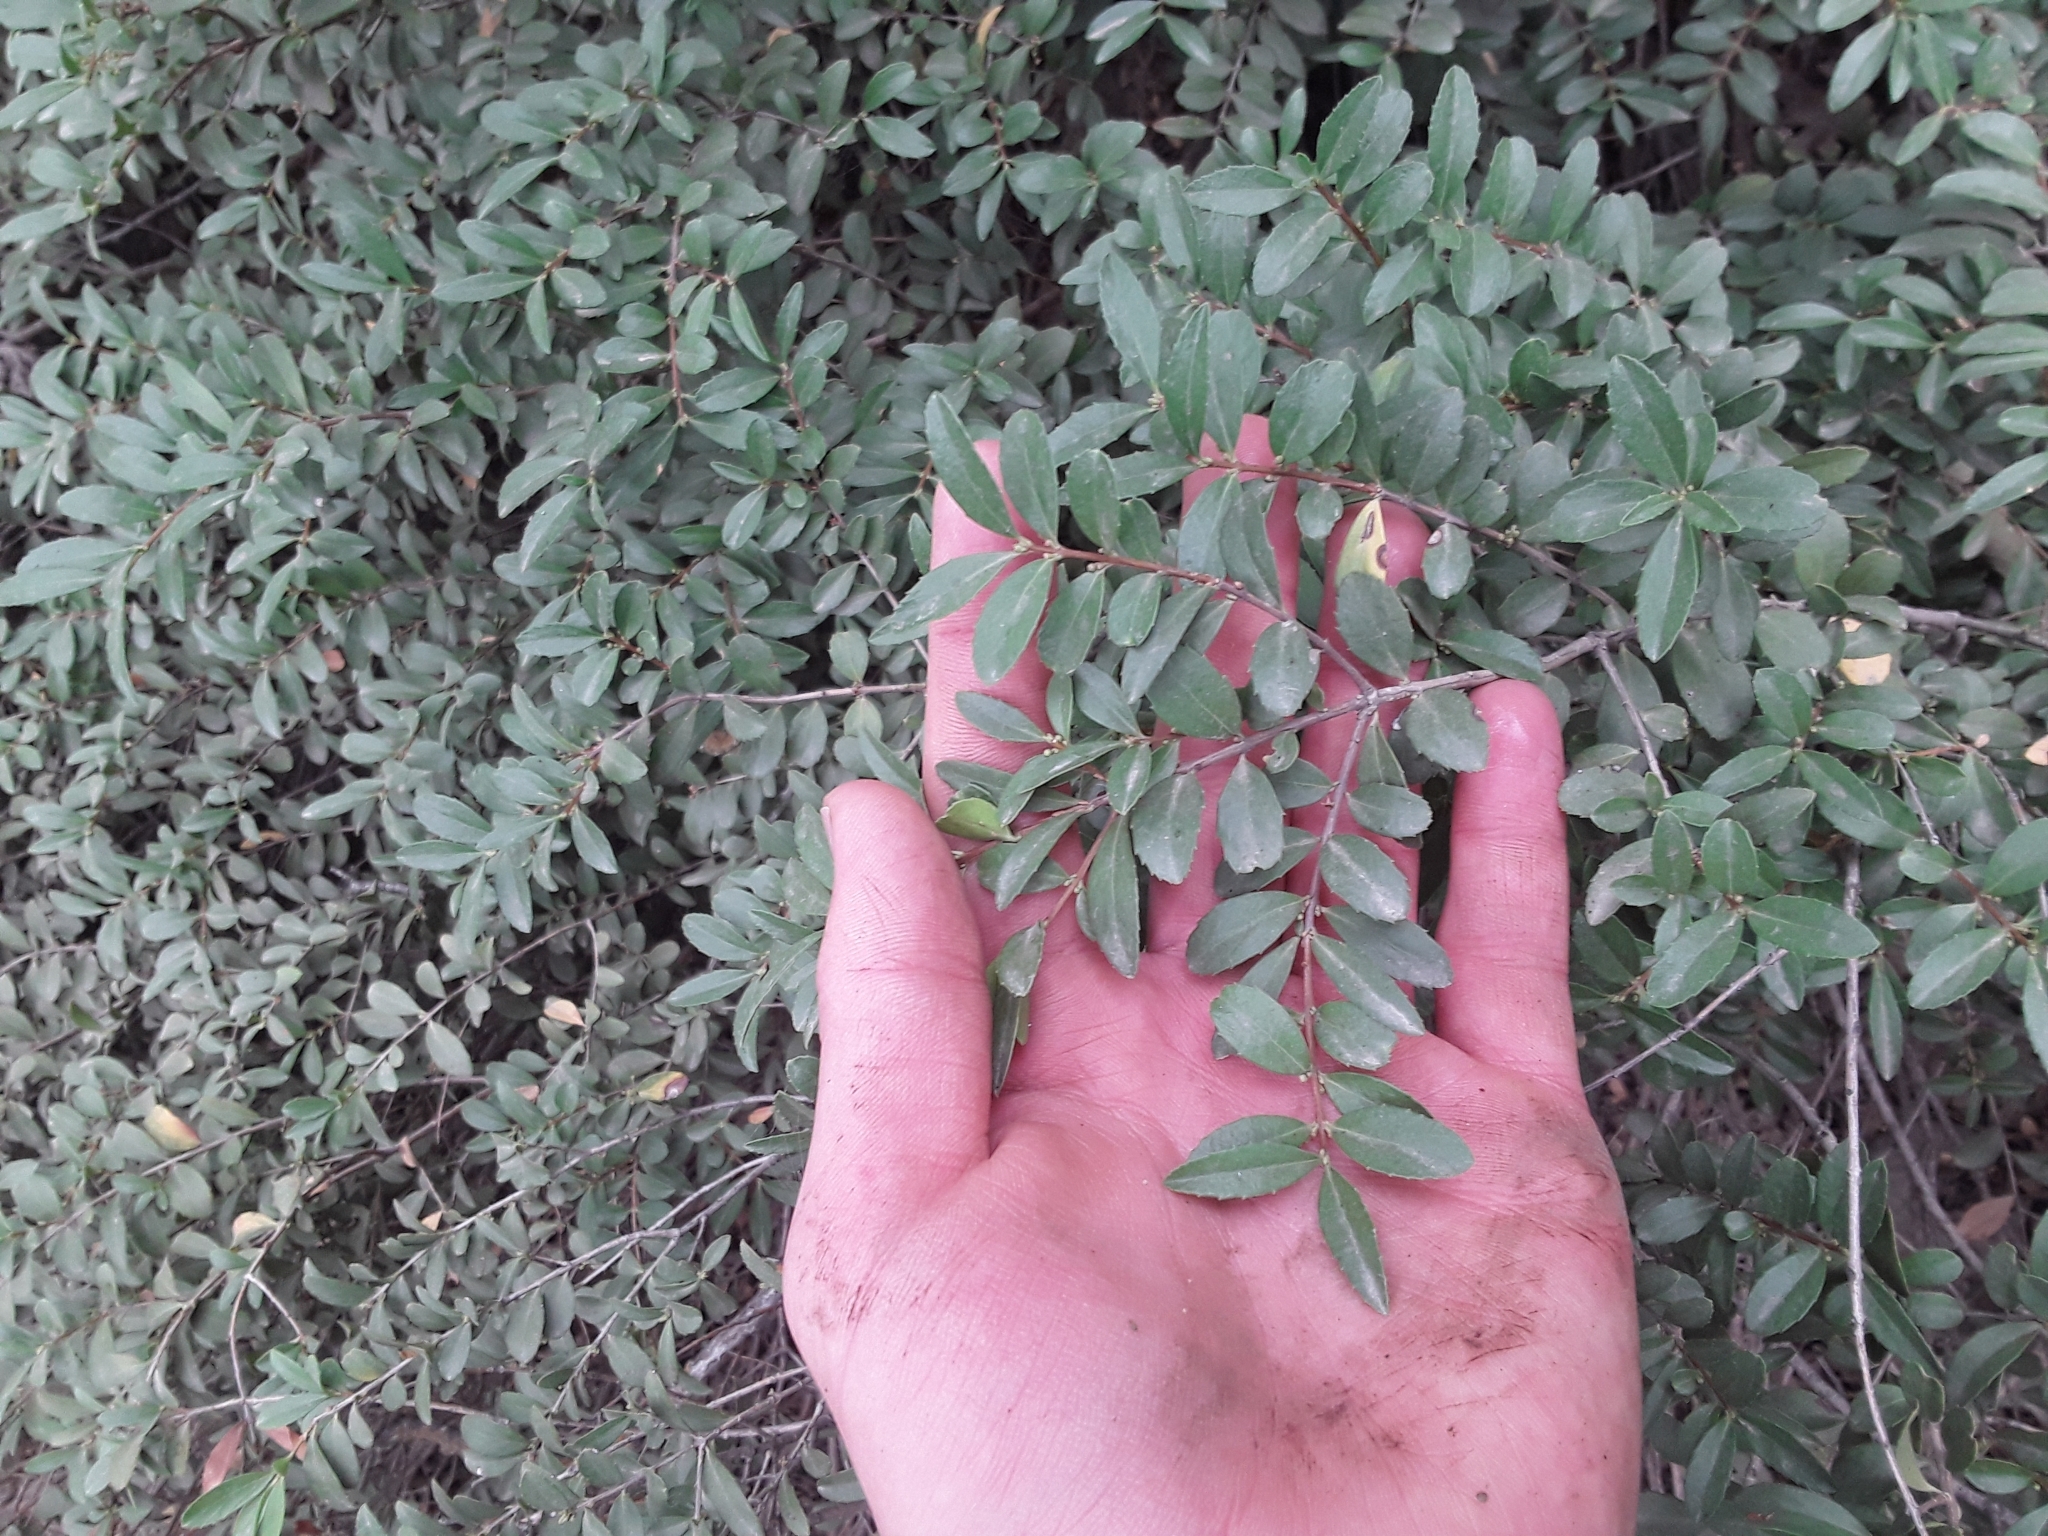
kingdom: Plantae
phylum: Tracheophyta
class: Magnoliopsida
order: Celastrales
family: Celastraceae
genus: Paxistima
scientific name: Paxistima myrsinites
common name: Mountain-lover
